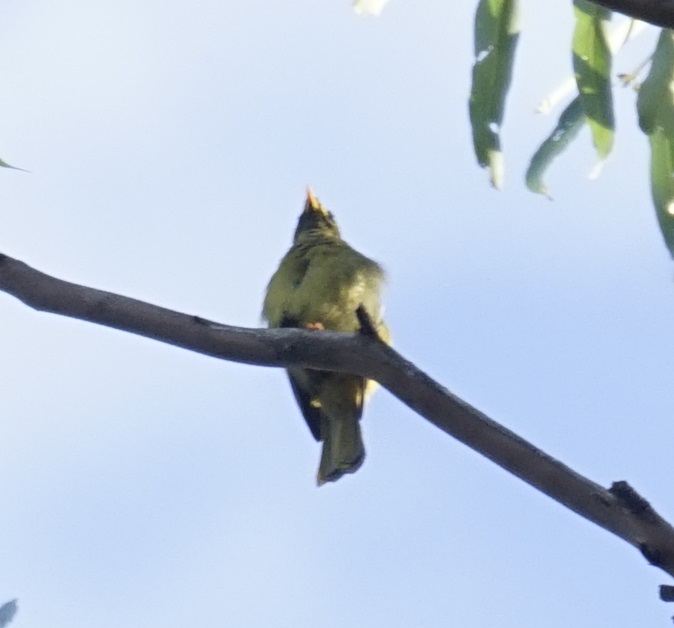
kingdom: Animalia
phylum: Chordata
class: Aves
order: Passeriformes
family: Meliphagidae
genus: Manorina
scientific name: Manorina melanophrys
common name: Bell miner
